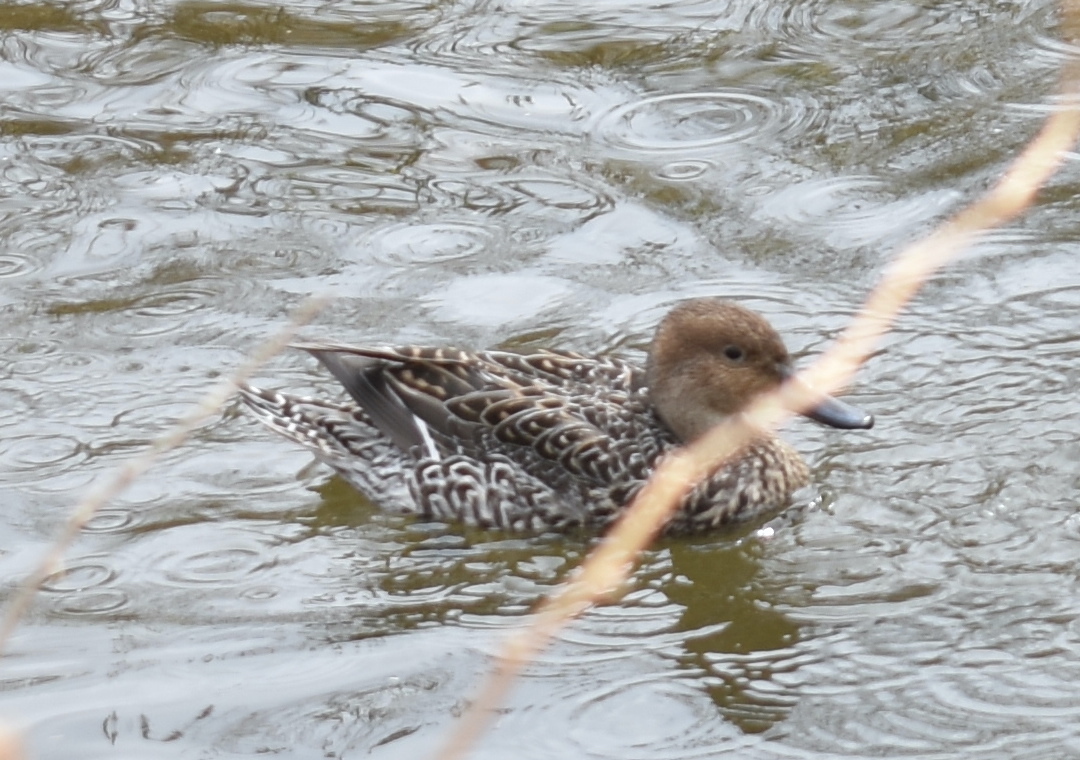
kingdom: Animalia
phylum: Chordata
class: Aves
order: Anseriformes
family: Anatidae
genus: Anas
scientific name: Anas acuta
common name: Northern pintail
